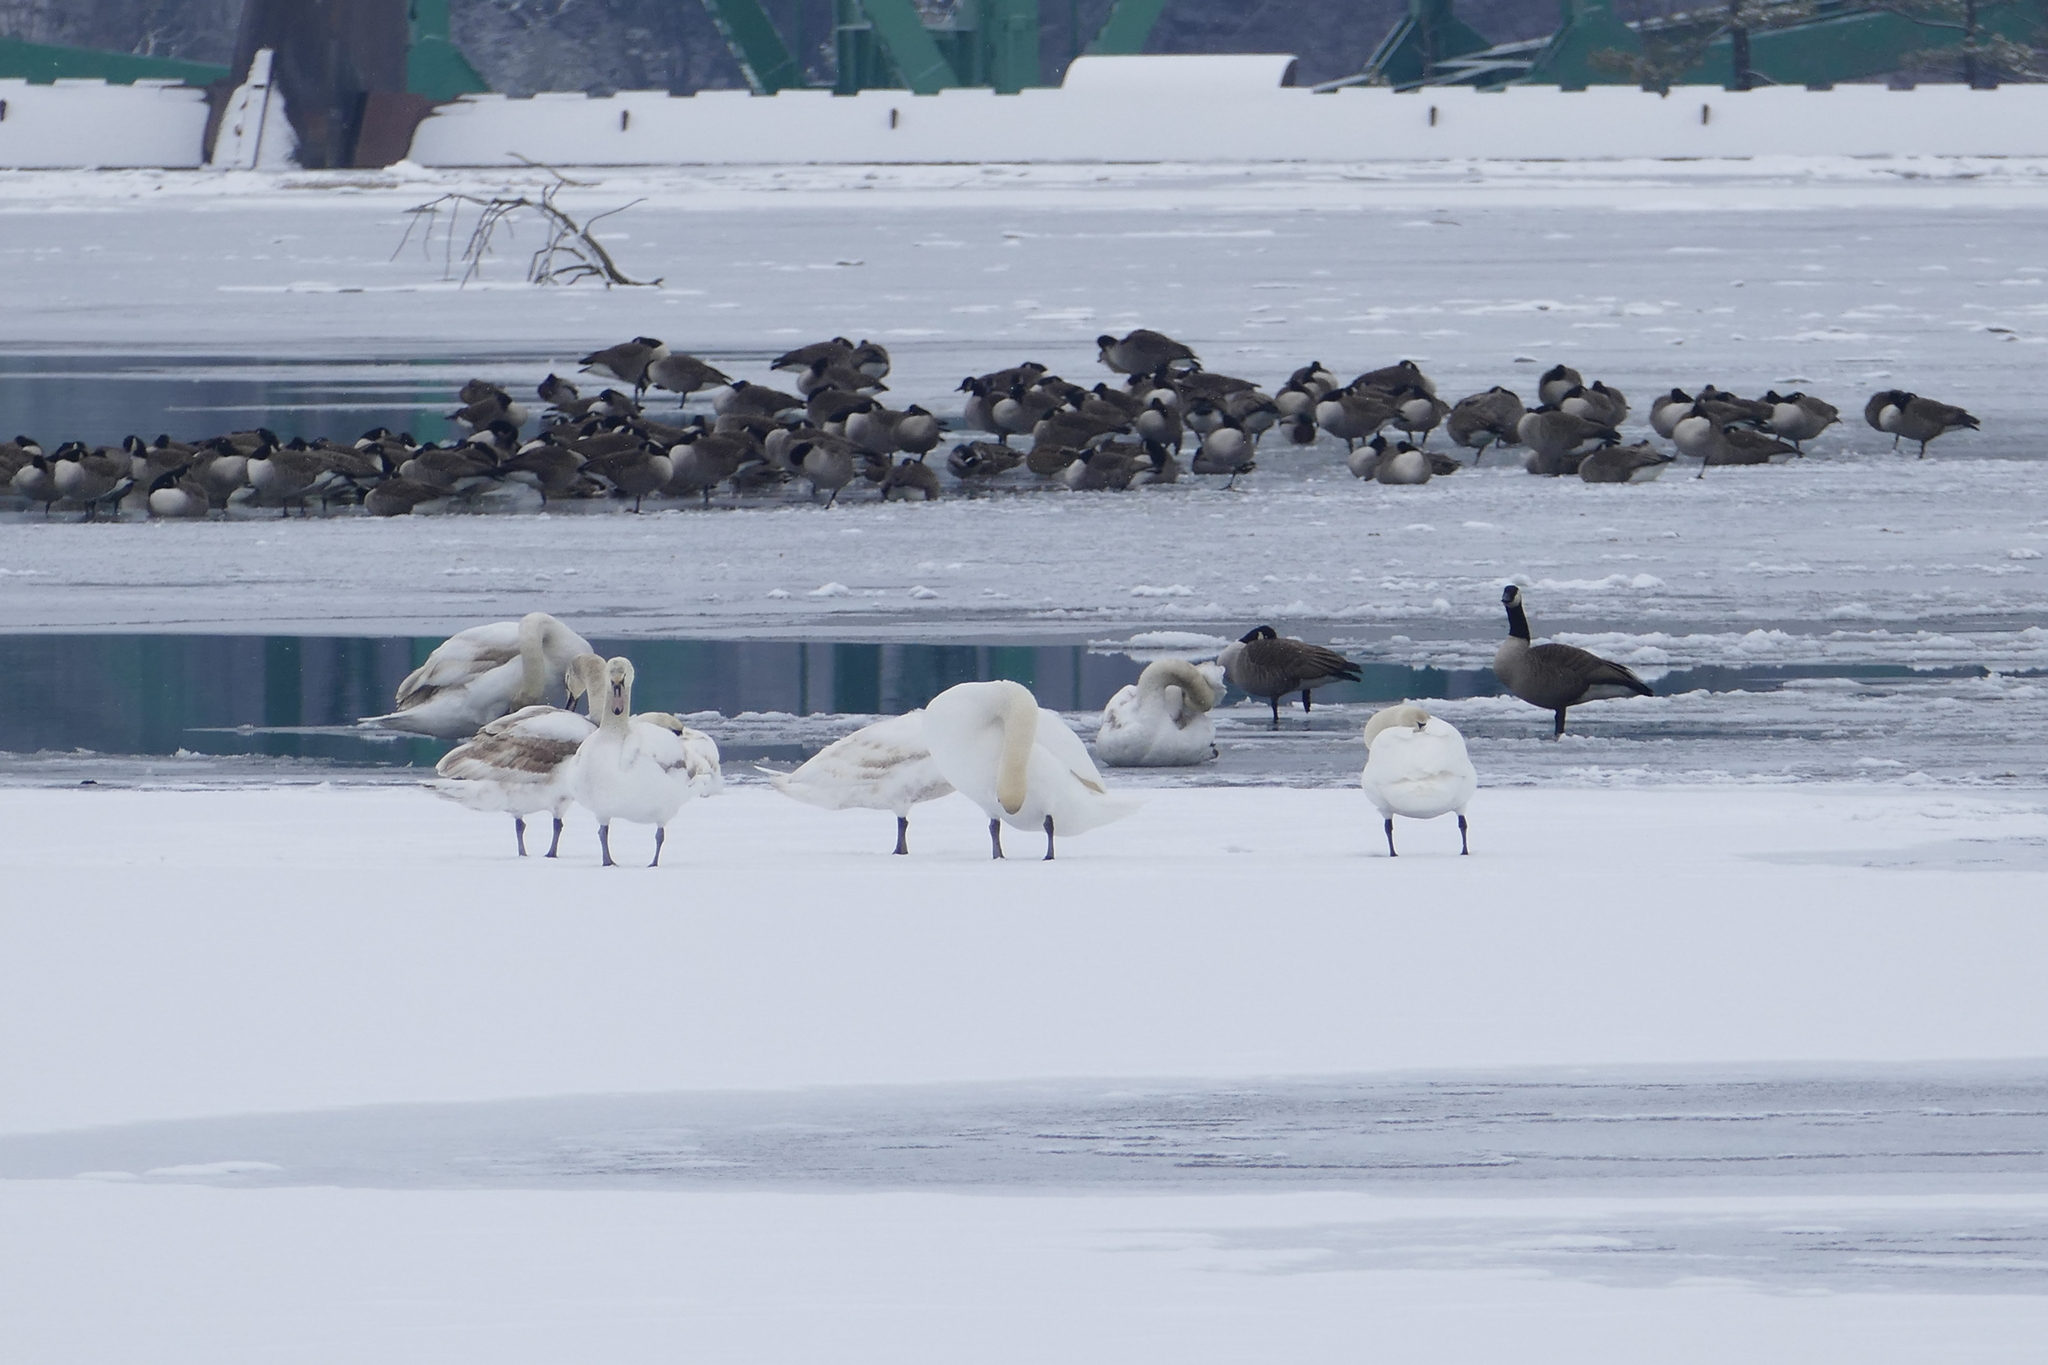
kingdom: Animalia
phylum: Chordata
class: Aves
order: Anseriformes
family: Anatidae
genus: Cygnus
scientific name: Cygnus olor
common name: Mute swan
